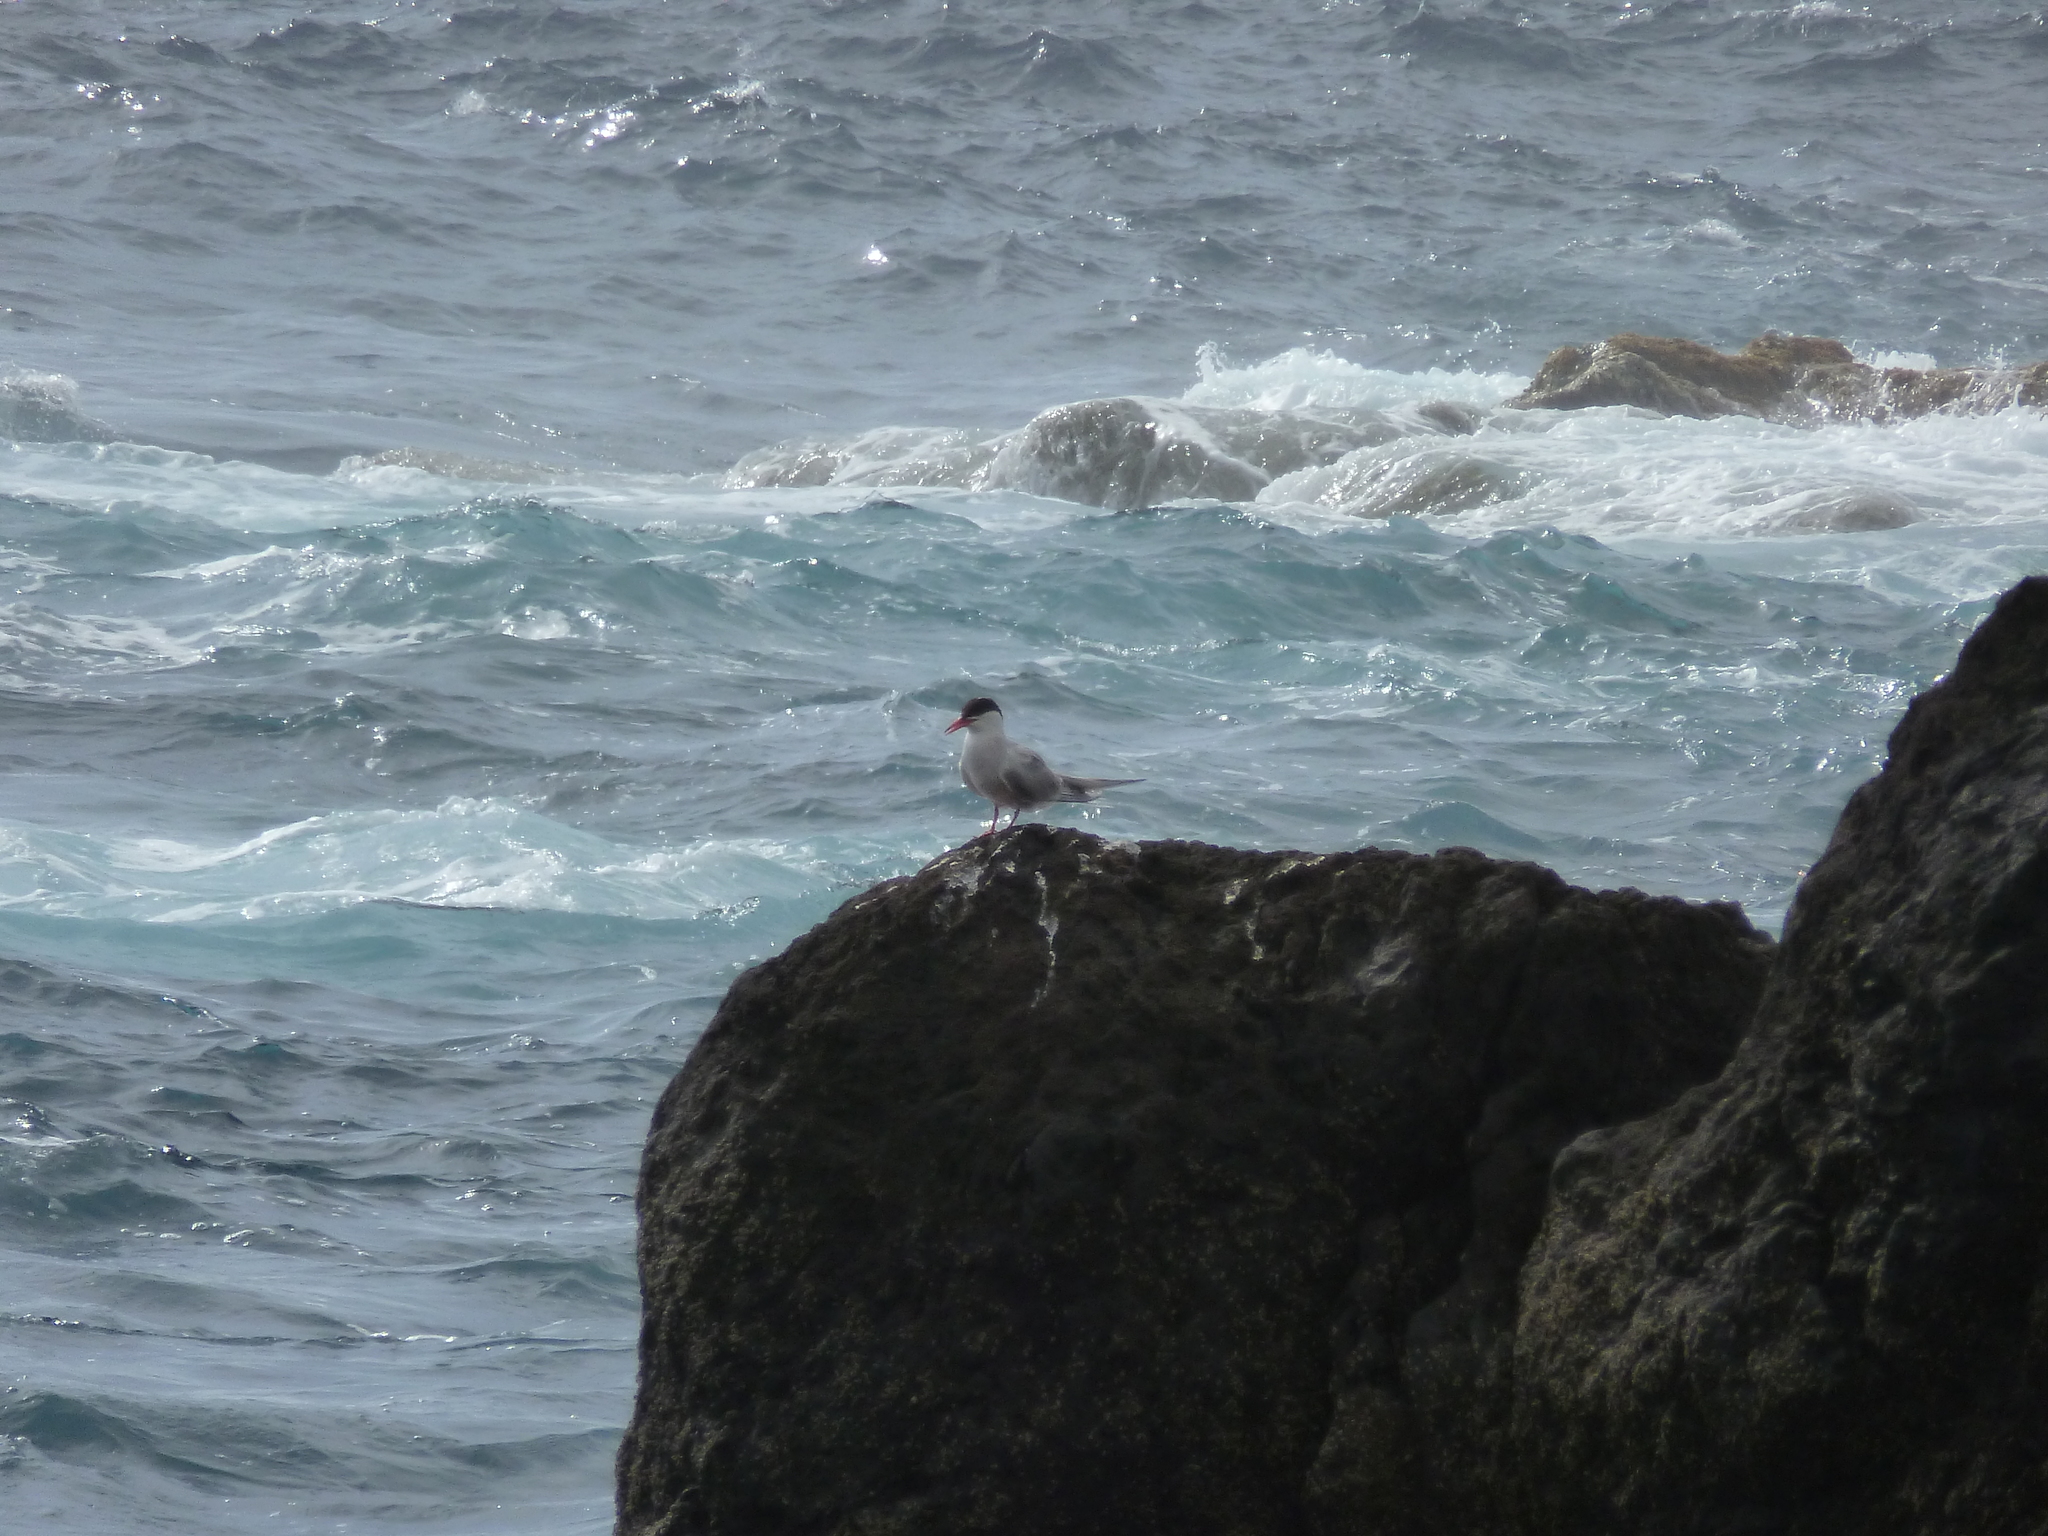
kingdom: Animalia
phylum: Chordata
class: Aves
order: Charadriiformes
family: Laridae
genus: Sterna
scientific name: Sterna hirundo
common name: Common tern
